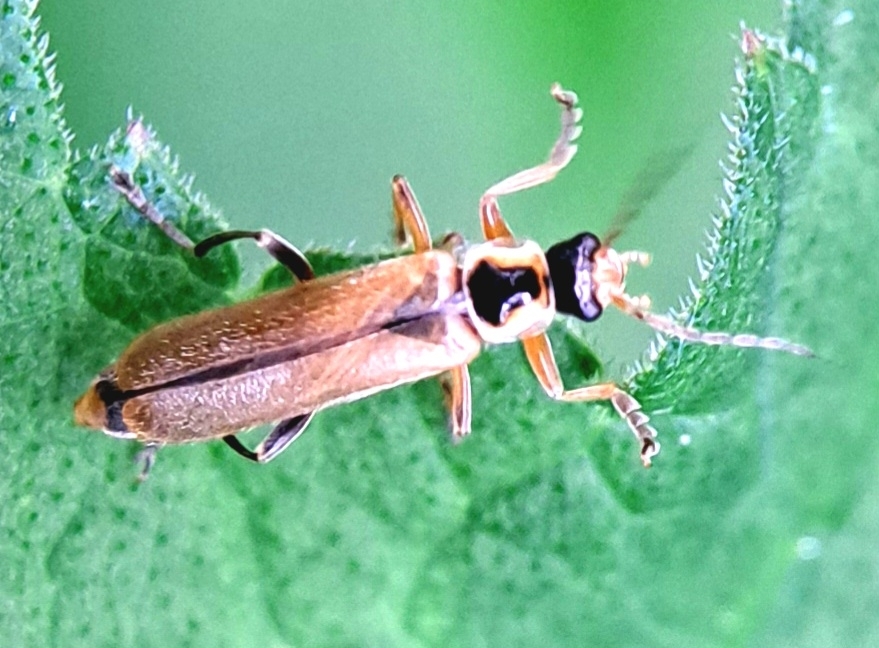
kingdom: Animalia
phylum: Arthropoda
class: Insecta
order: Coleoptera
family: Cantharidae
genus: Cantharis
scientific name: Cantharis decipiens
